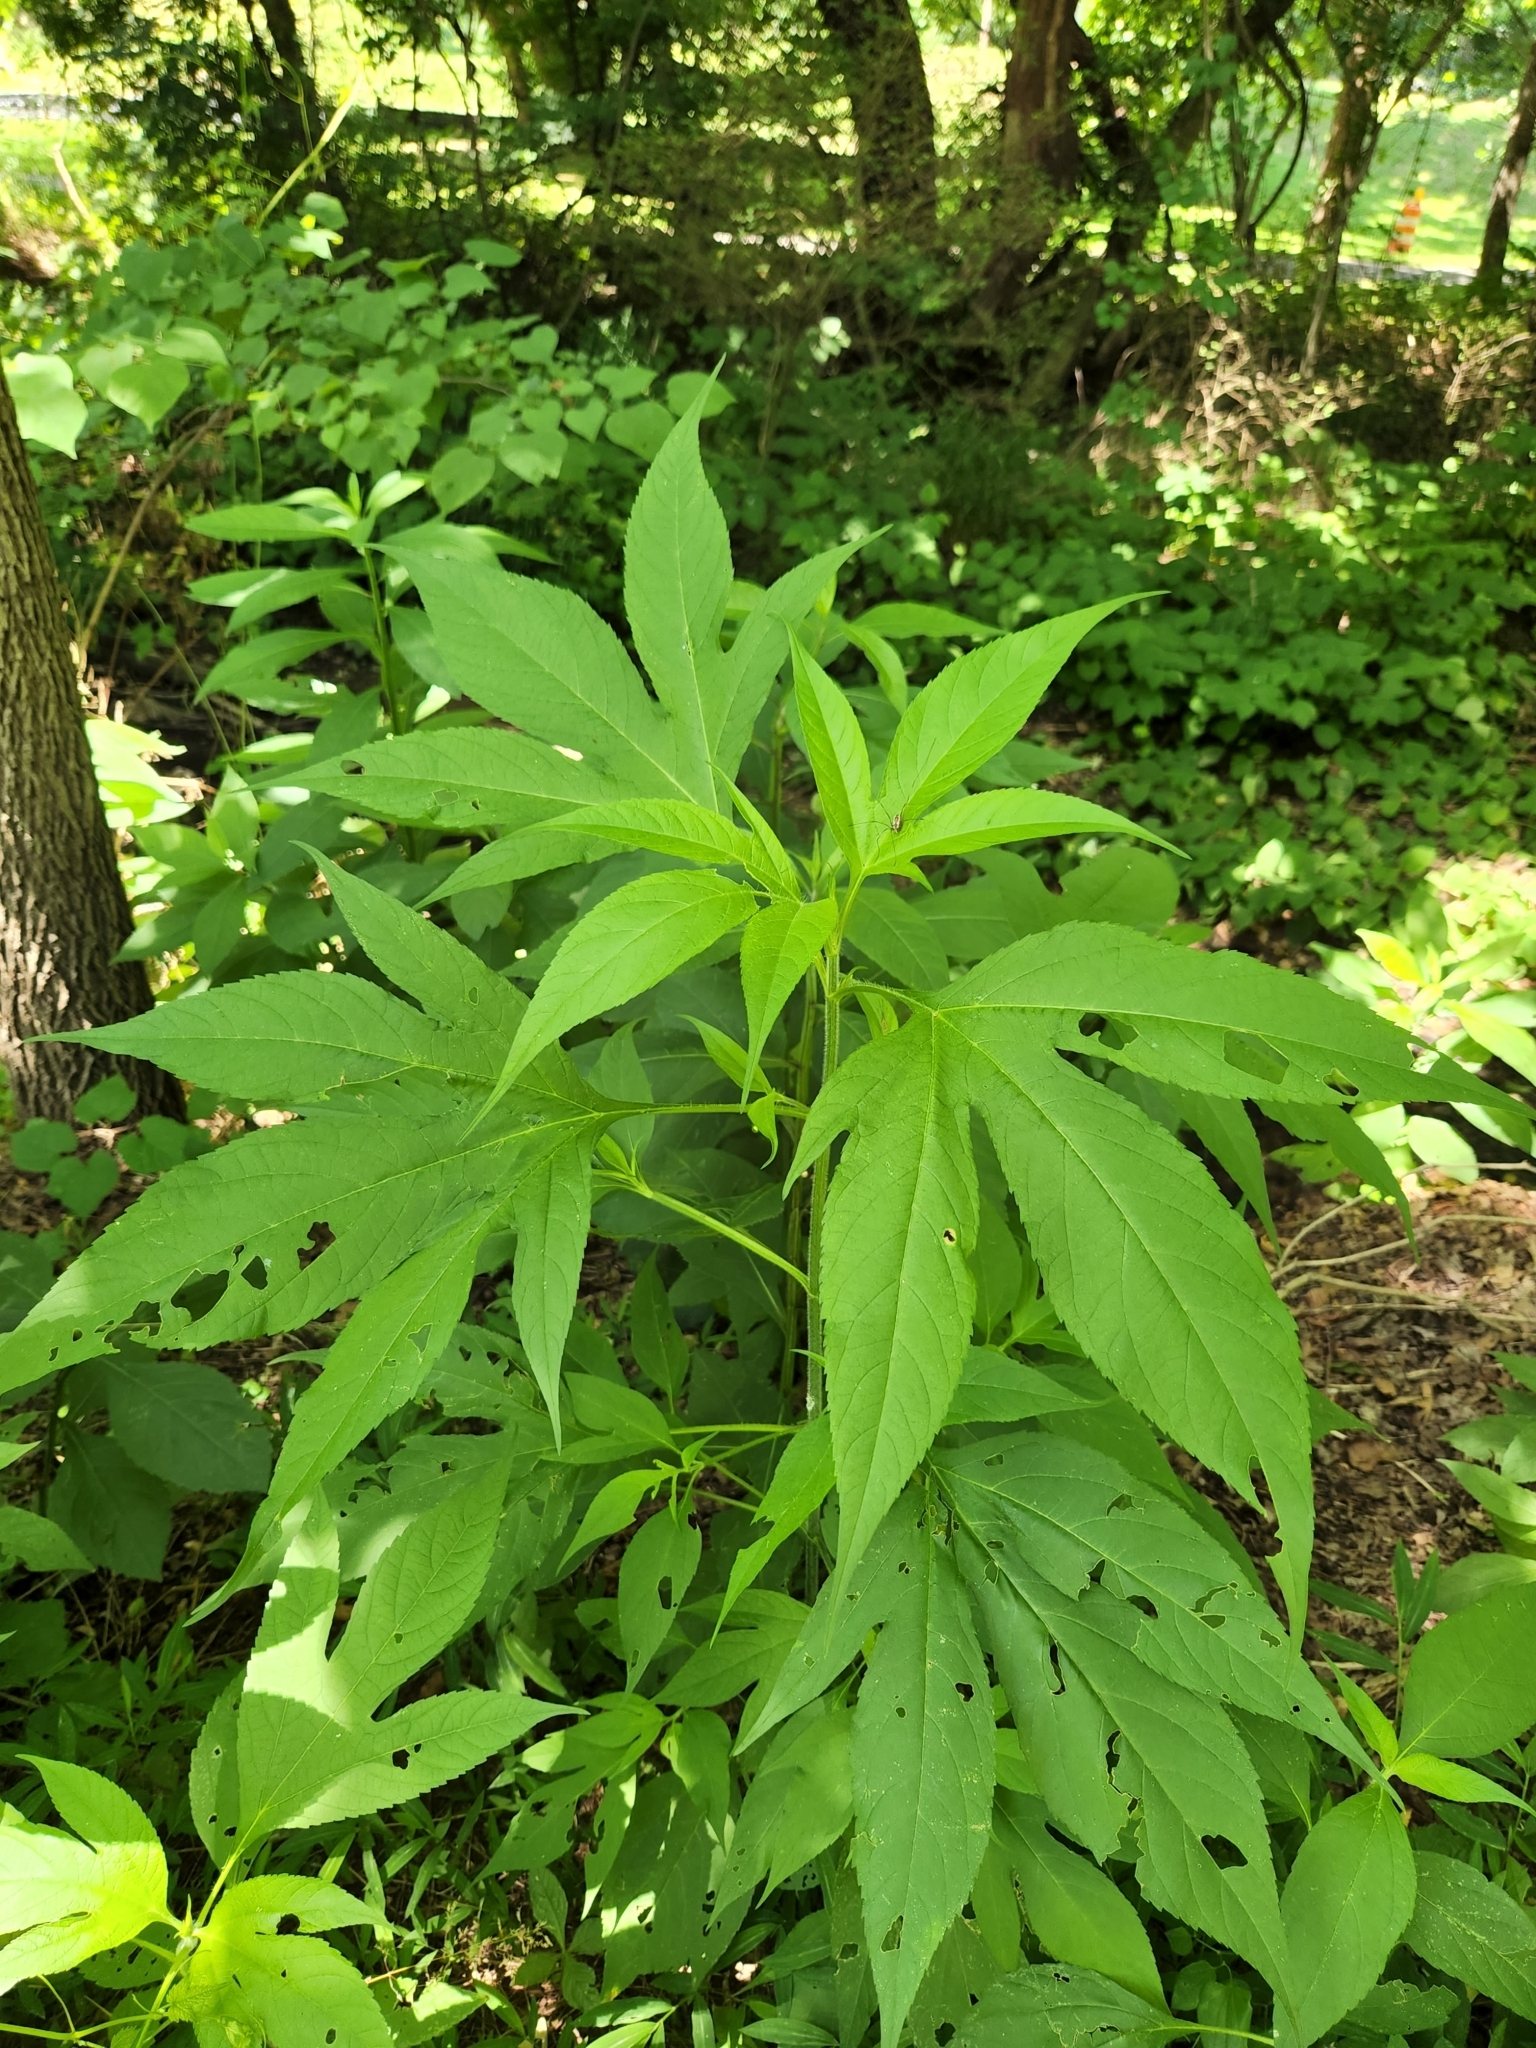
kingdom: Plantae
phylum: Tracheophyta
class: Magnoliopsida
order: Asterales
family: Asteraceae
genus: Ambrosia
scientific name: Ambrosia trifida
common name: Giant ragweed
